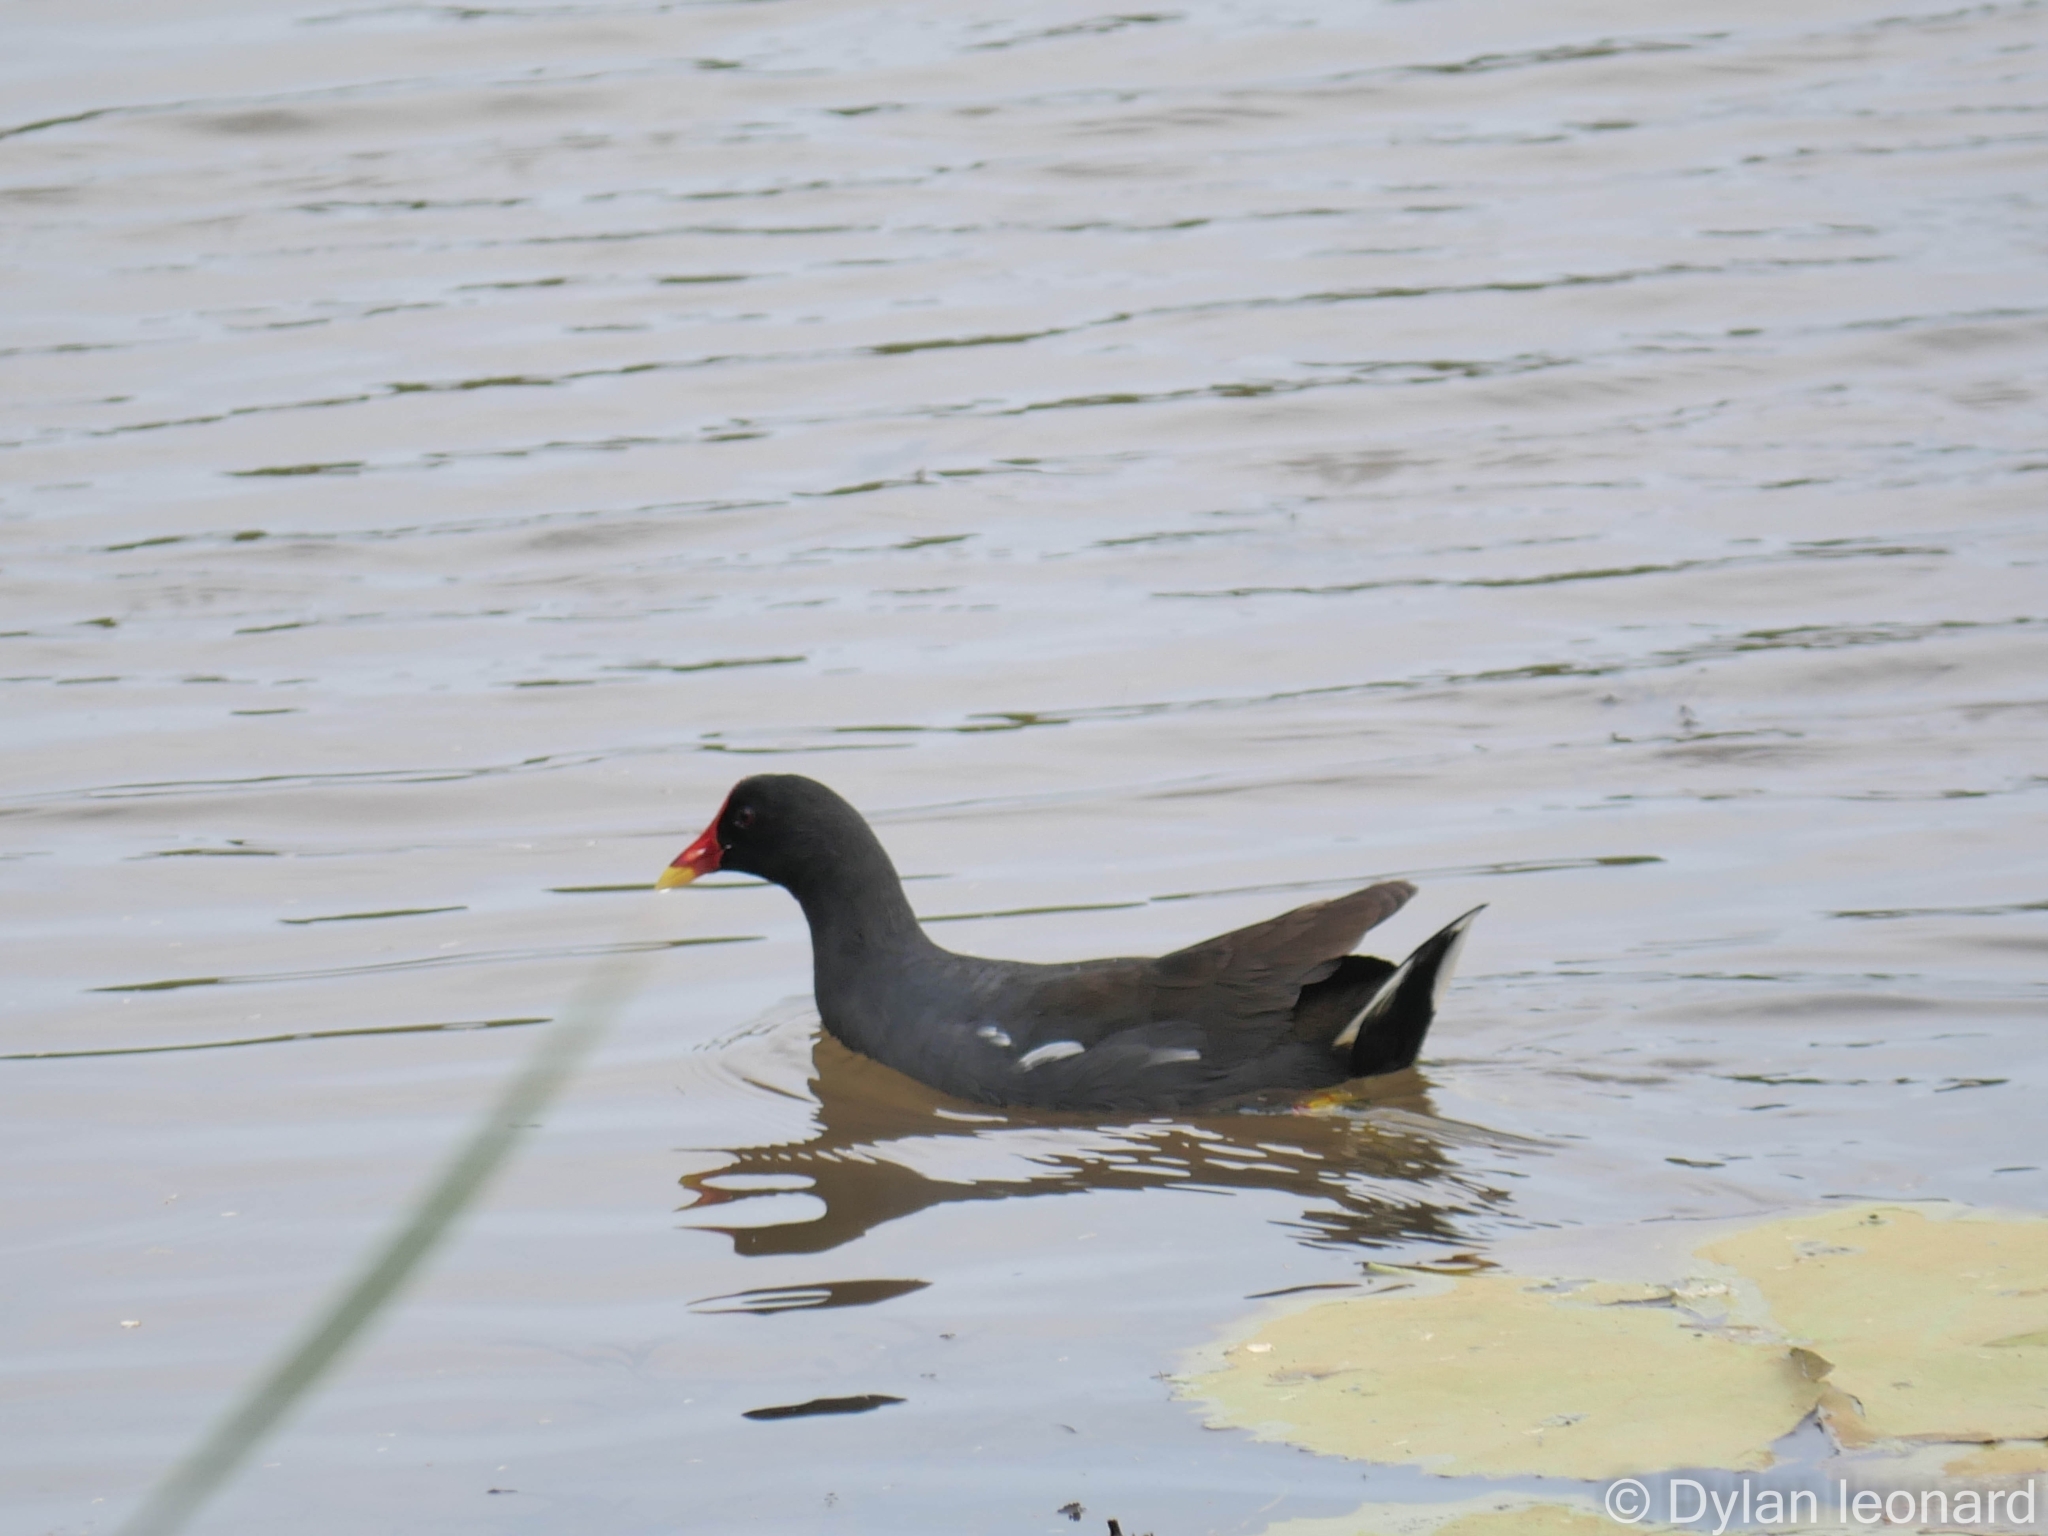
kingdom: Animalia
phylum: Chordata
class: Aves
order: Gruiformes
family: Rallidae
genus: Gallinula
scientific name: Gallinula chloropus
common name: Common moorhen
